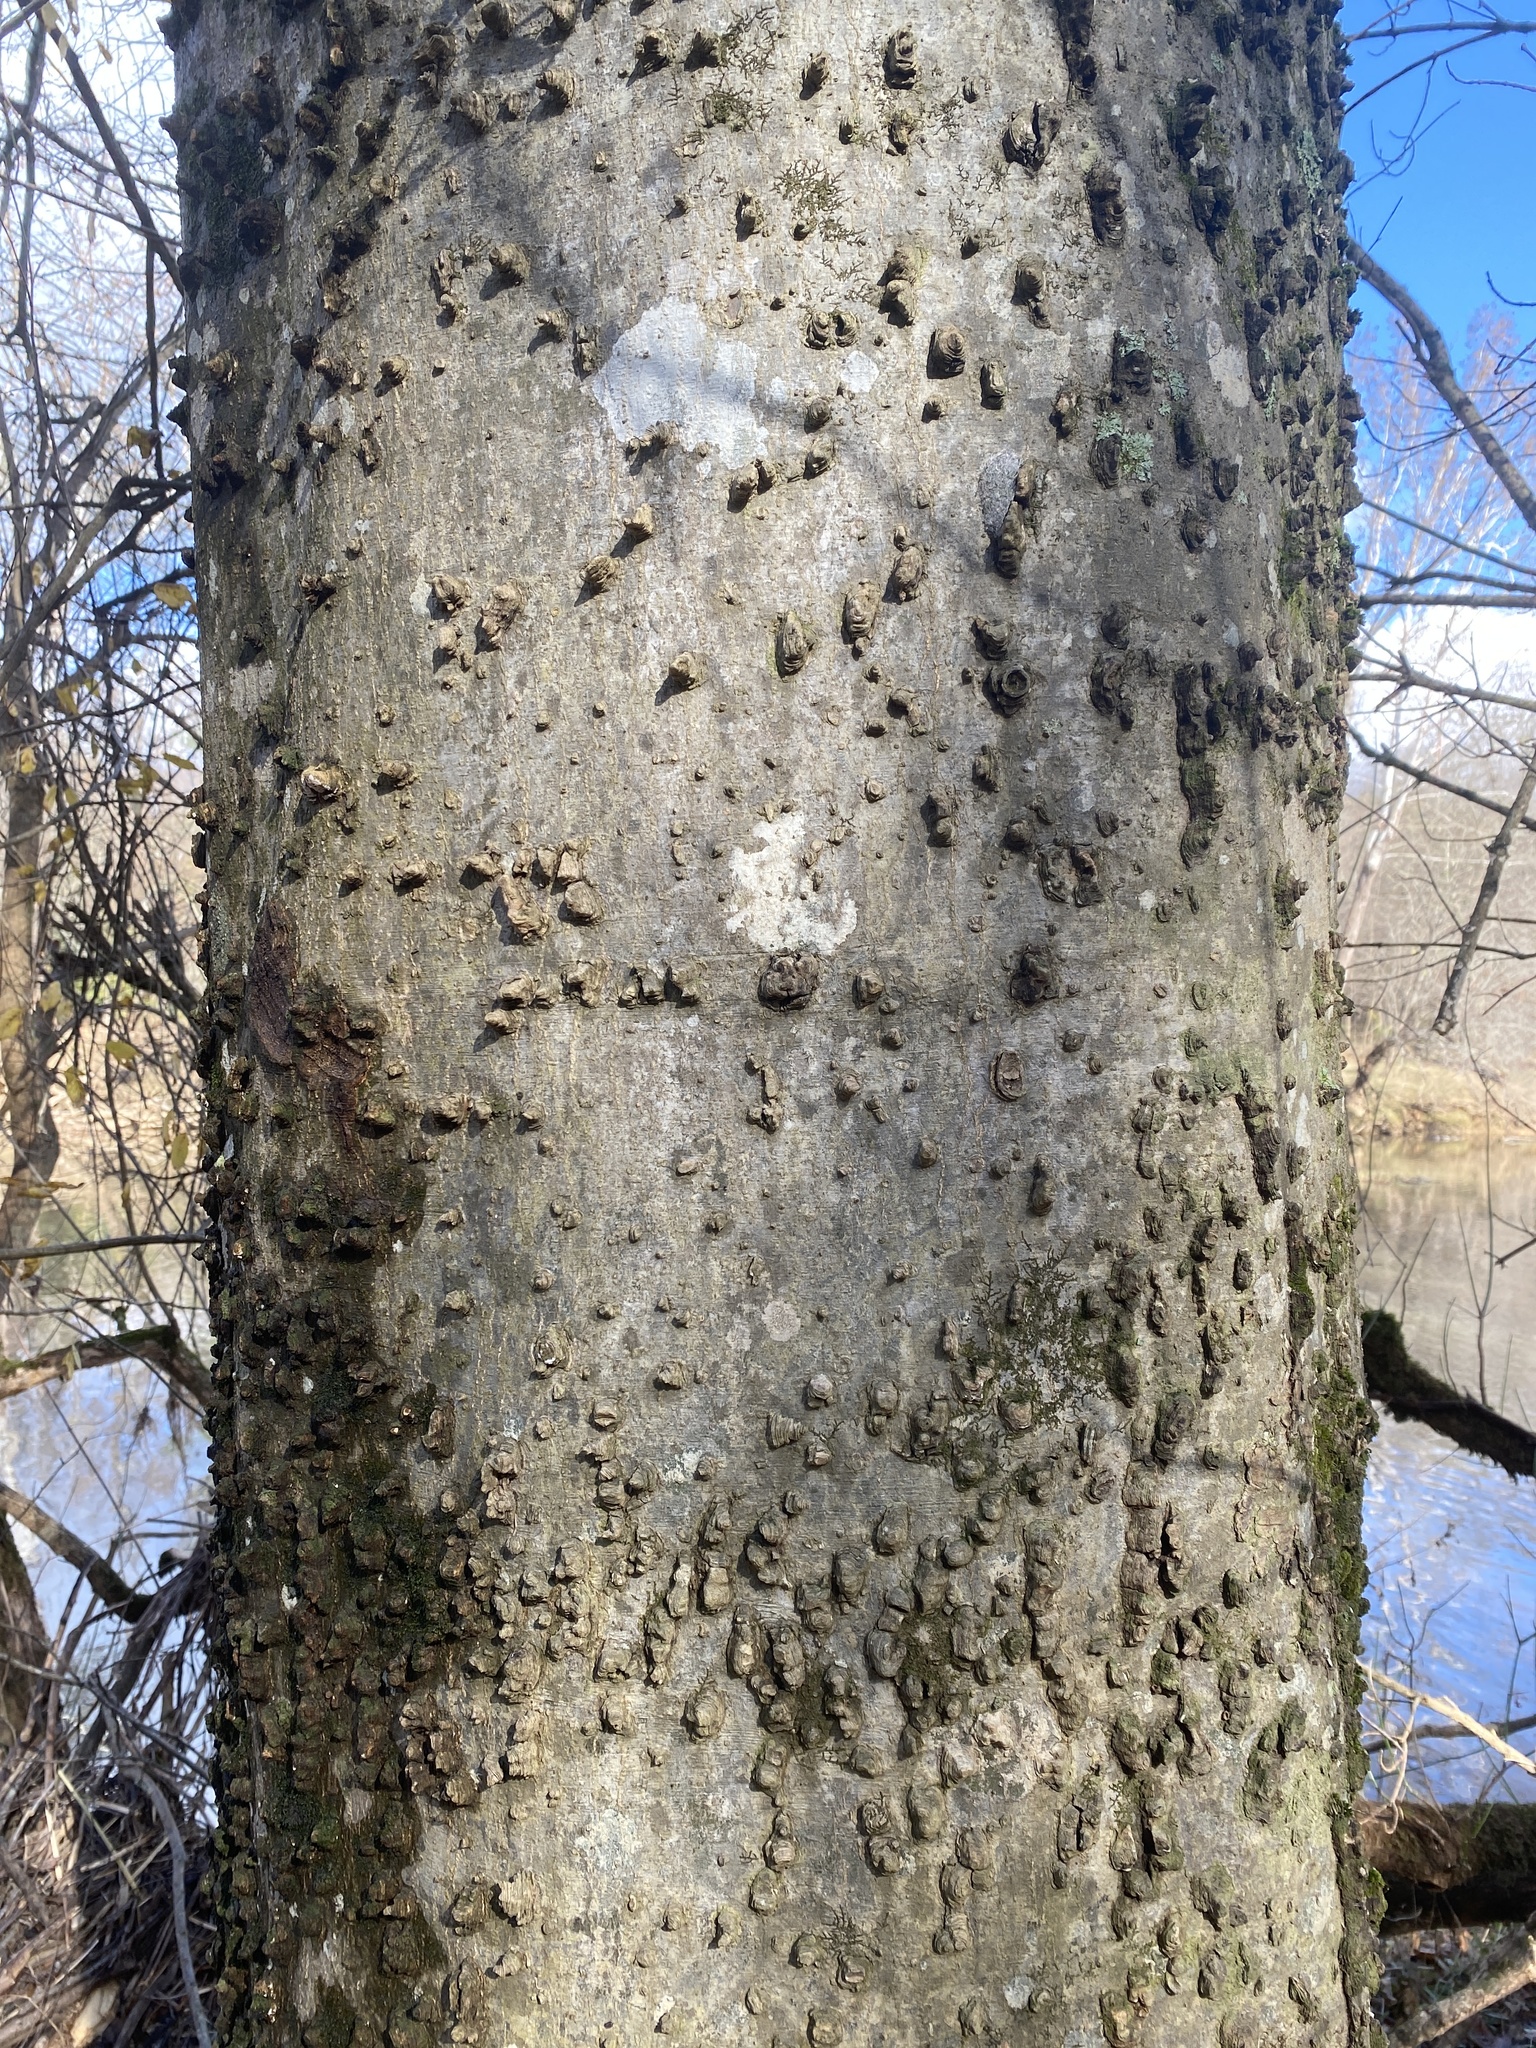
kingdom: Plantae
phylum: Tracheophyta
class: Magnoliopsida
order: Rosales
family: Cannabaceae
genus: Celtis
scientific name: Celtis laevigata
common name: Sugarberry
